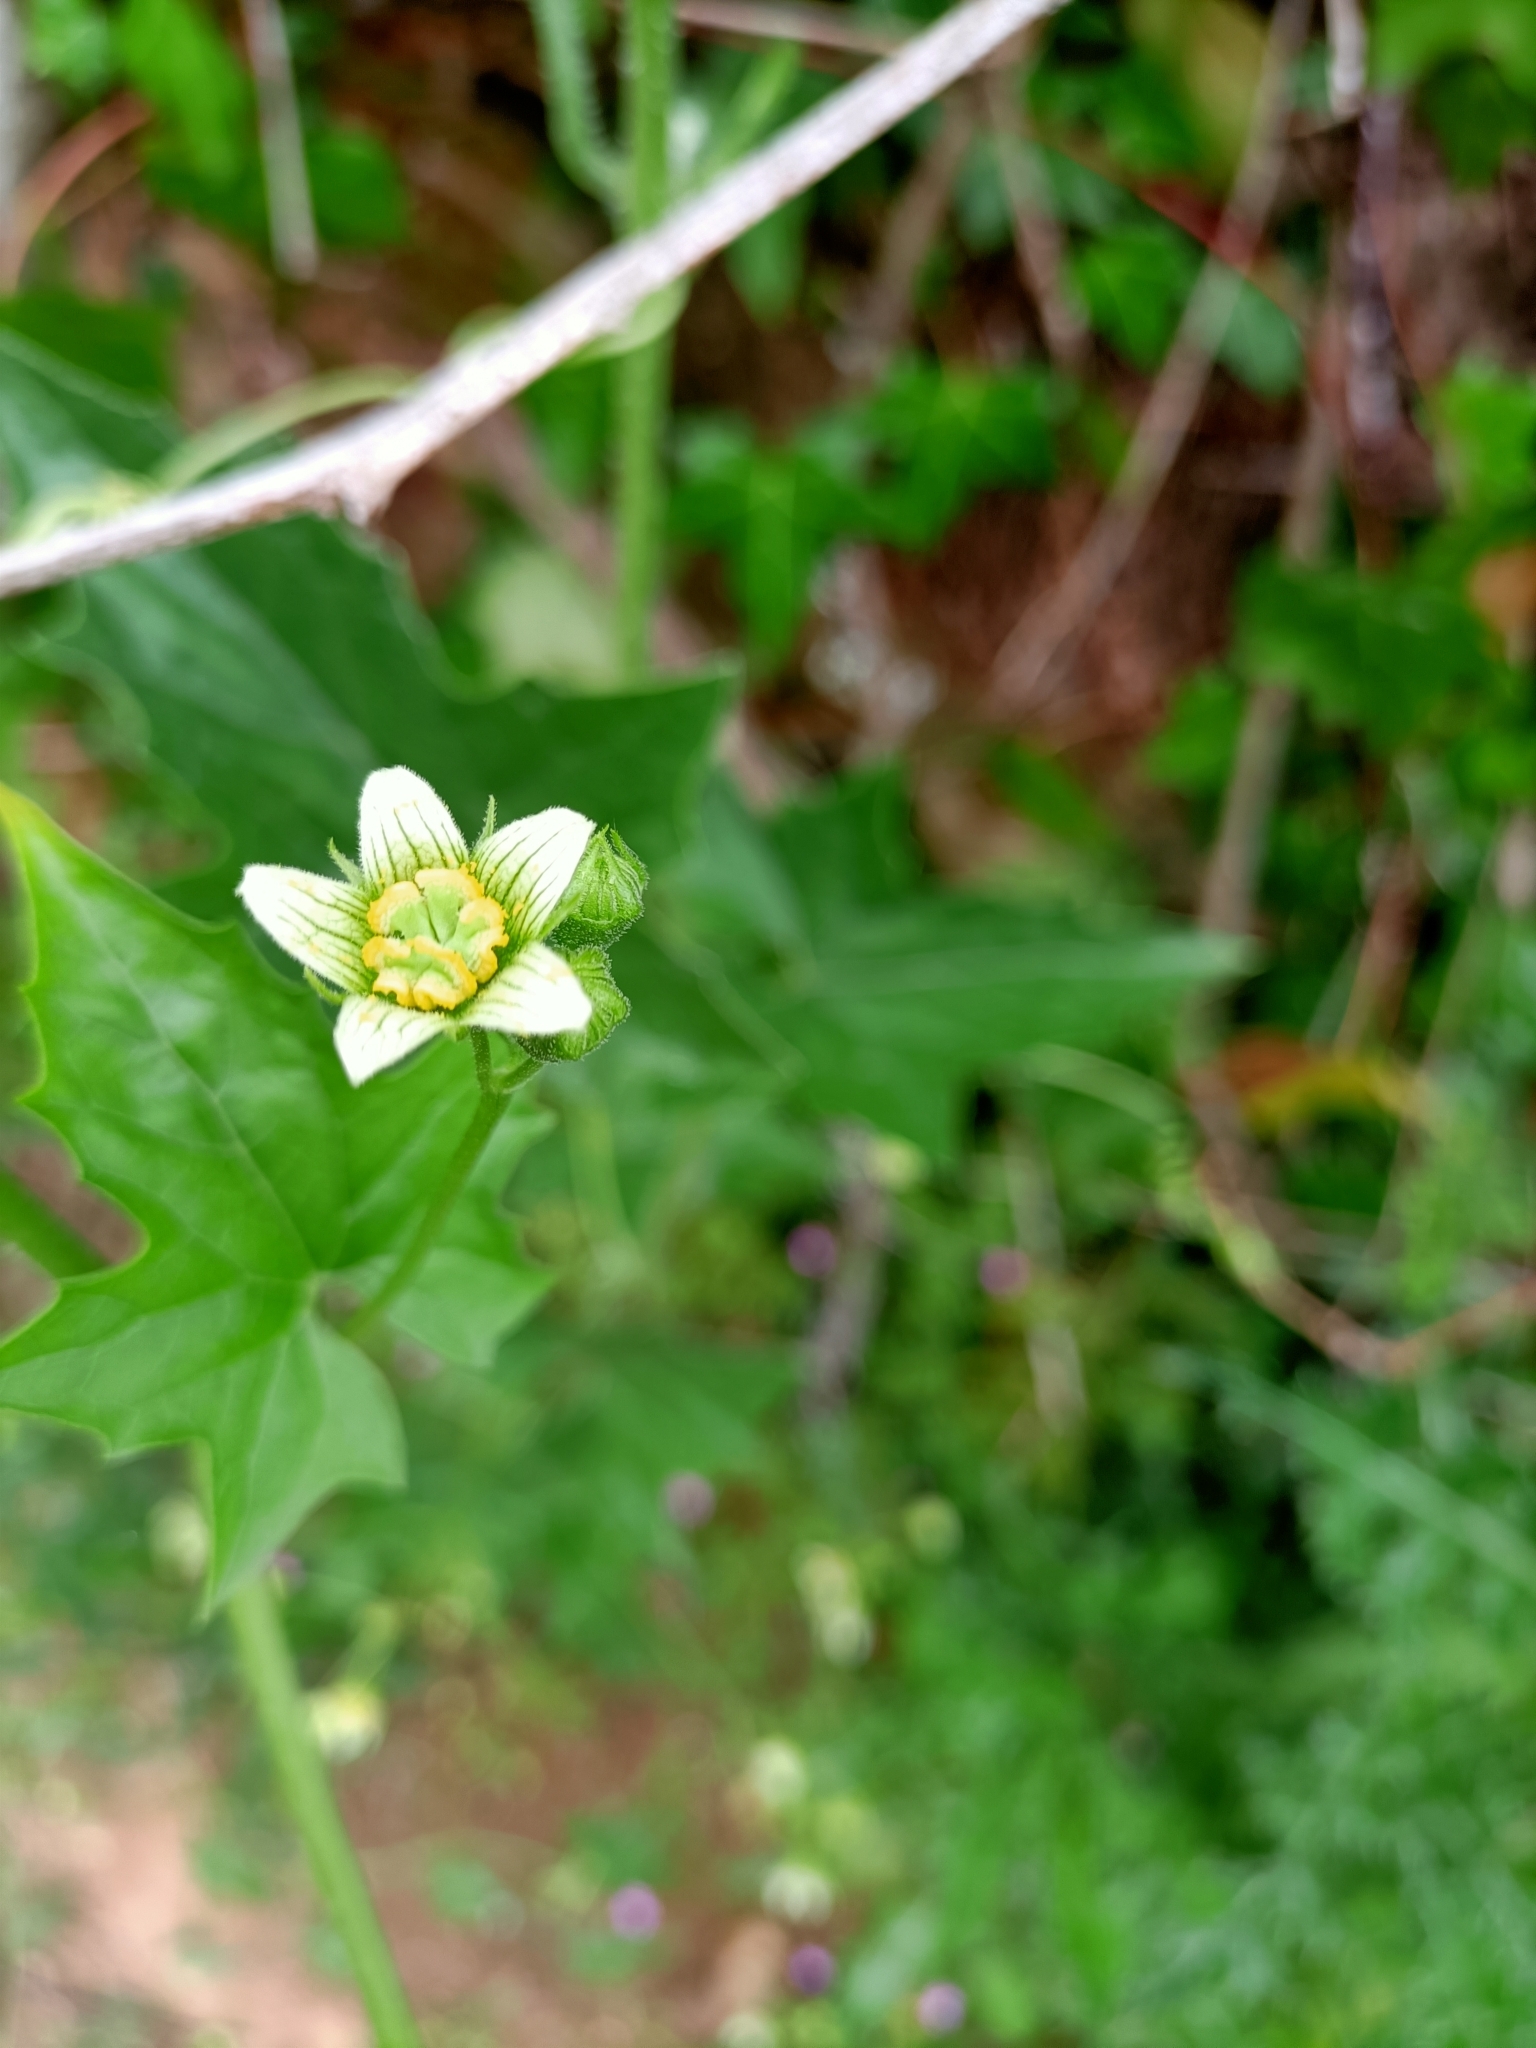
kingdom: Plantae
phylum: Tracheophyta
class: Magnoliopsida
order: Cucurbitales
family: Cucurbitaceae
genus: Bryonia
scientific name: Bryonia cretica
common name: Cretan bryony
